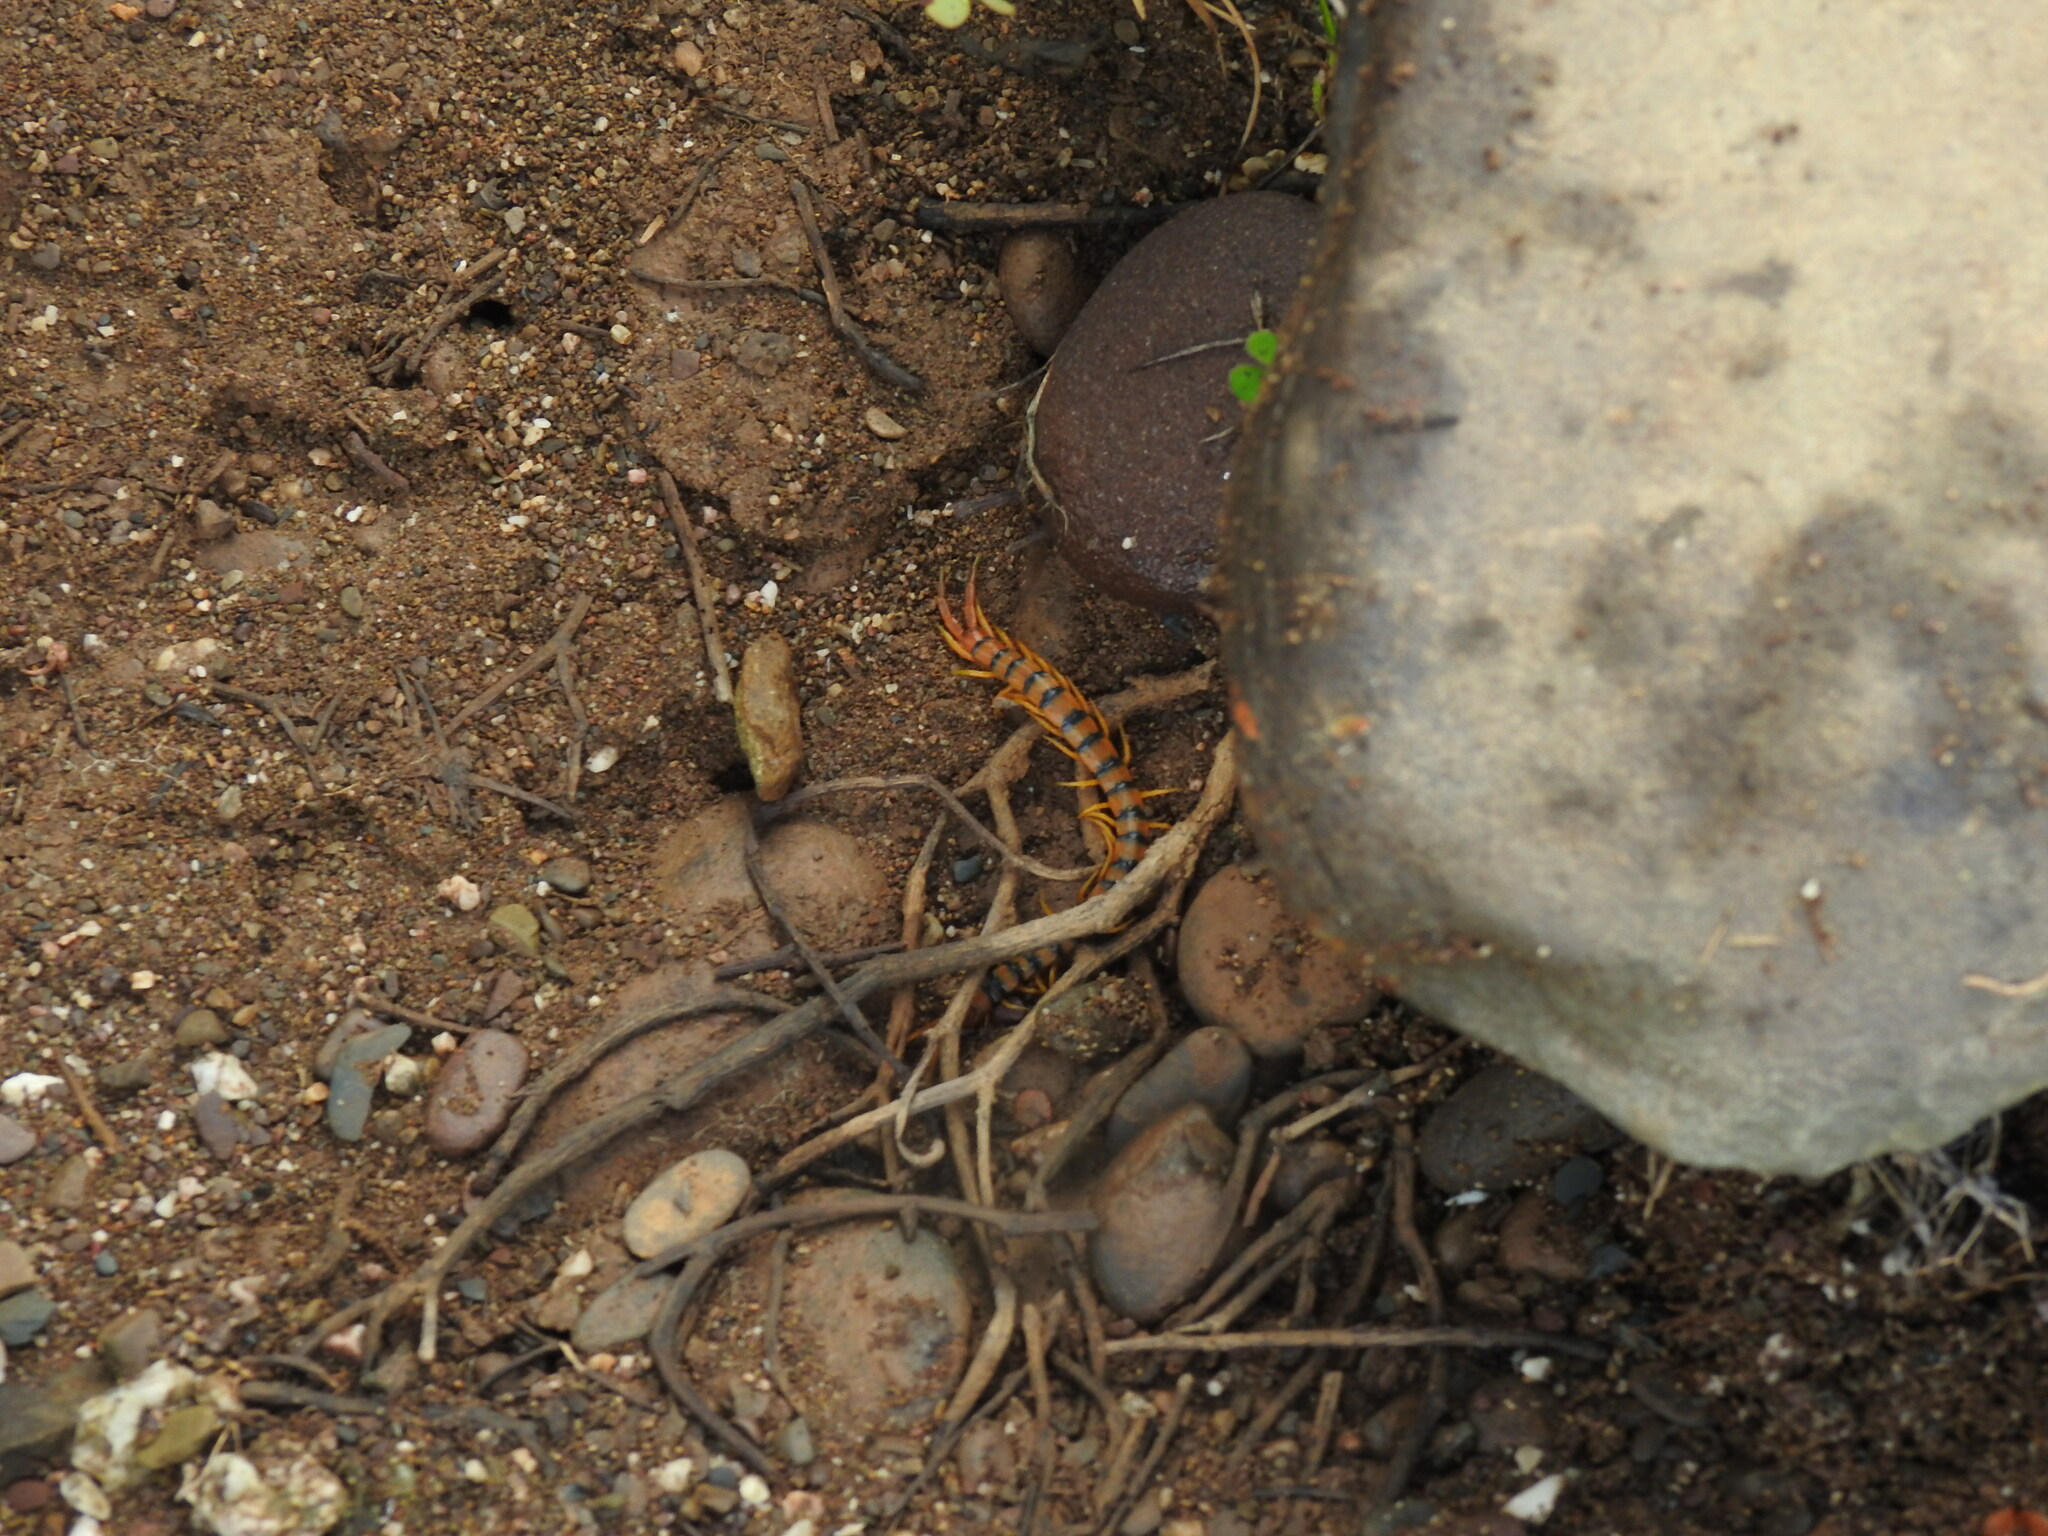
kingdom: Animalia
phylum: Arthropoda
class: Chilopoda
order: Scolopendromorpha
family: Scolopendridae
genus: Scolopendra
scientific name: Scolopendra cingulata
